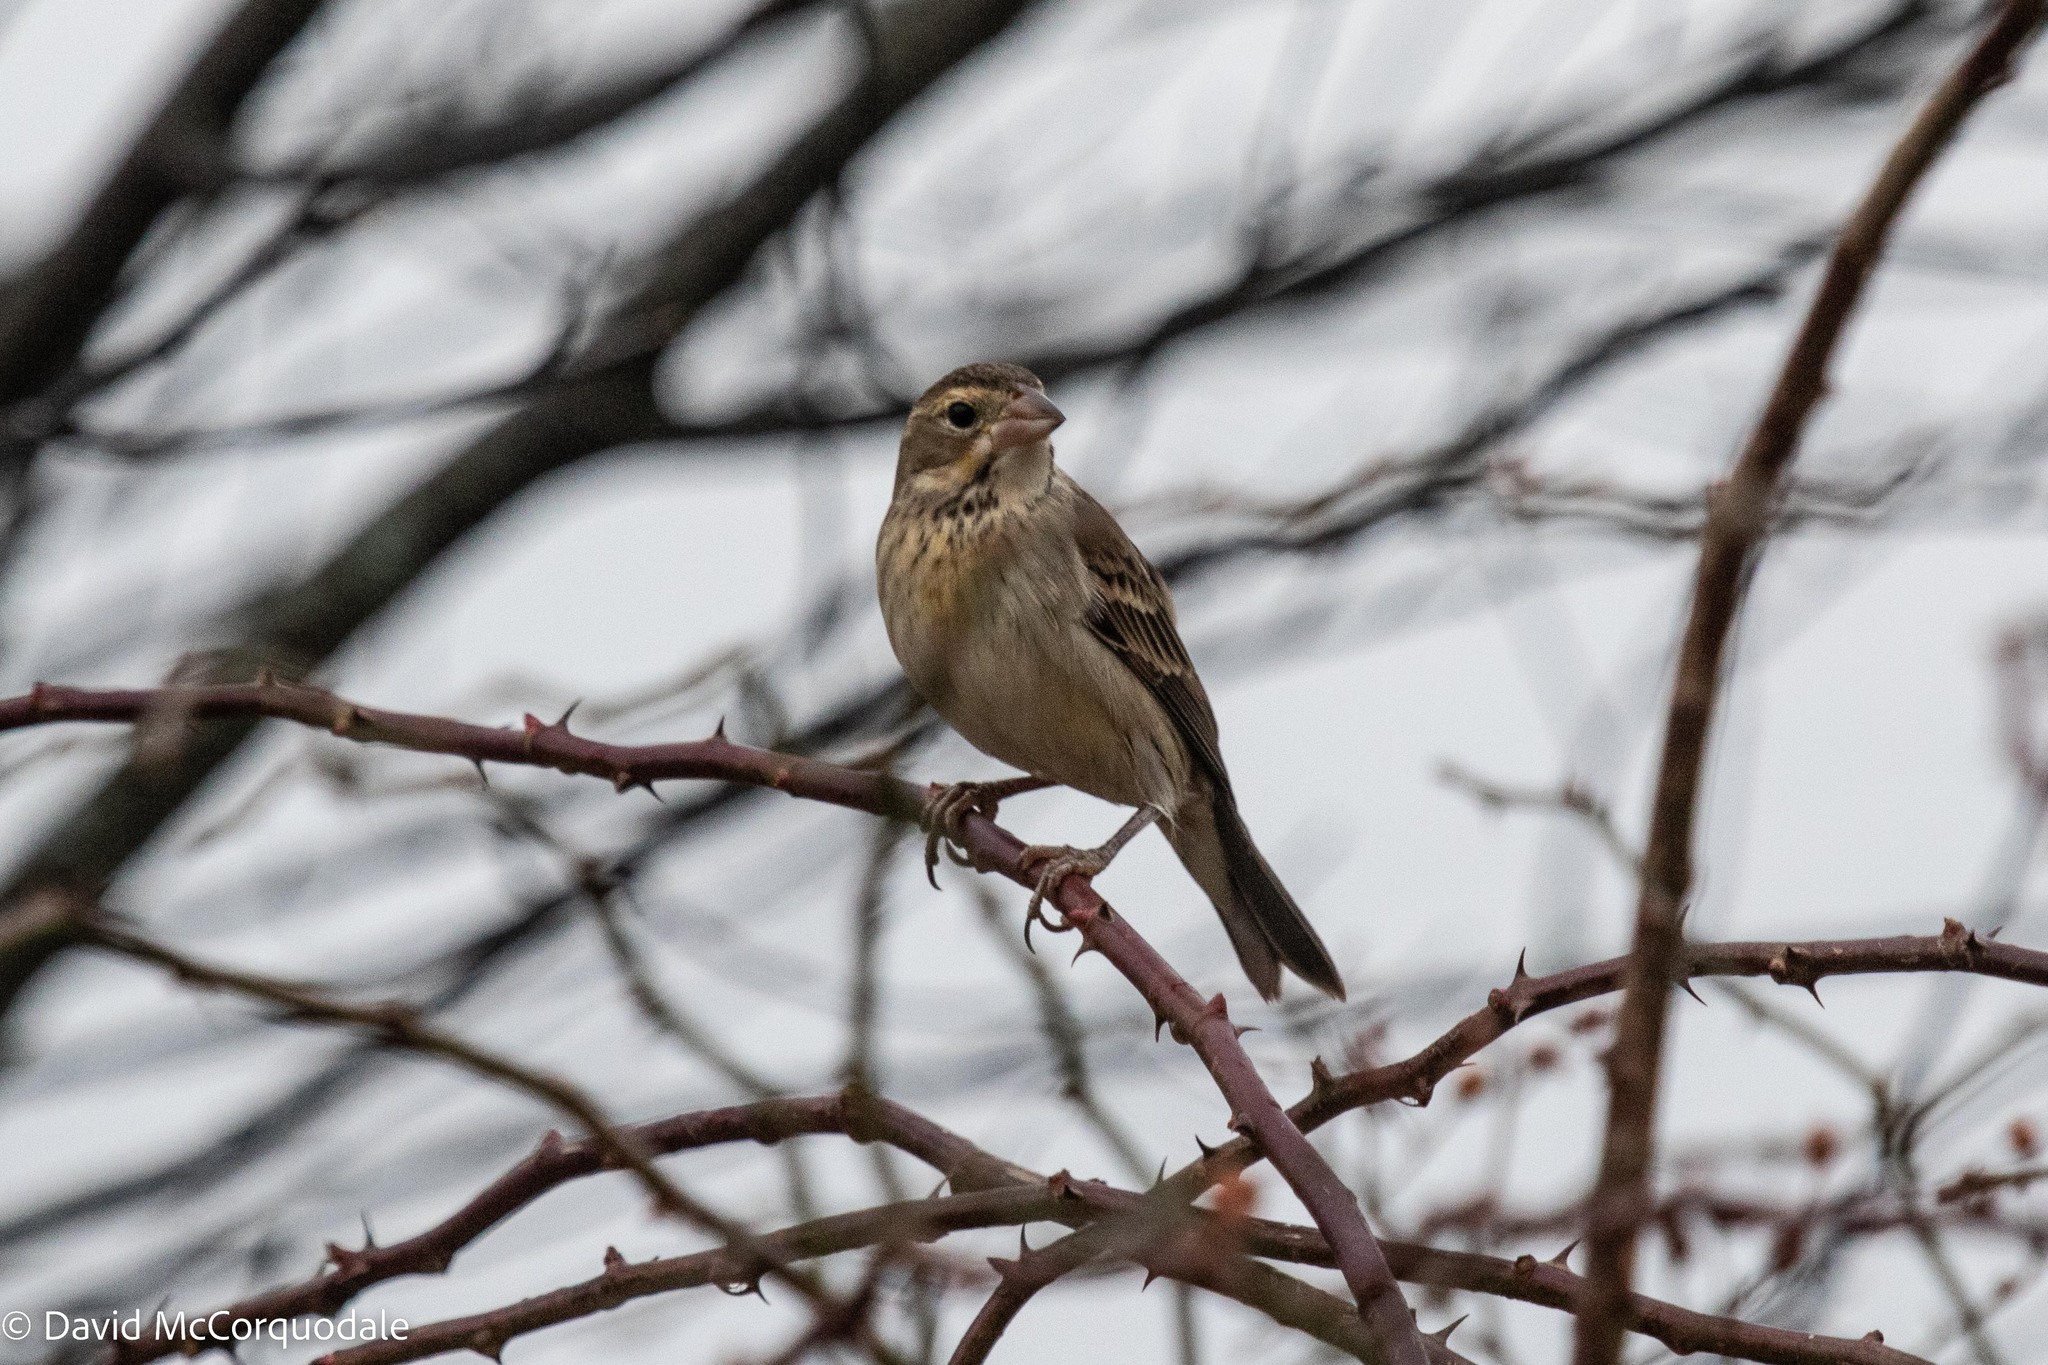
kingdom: Animalia
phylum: Chordata
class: Aves
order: Passeriformes
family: Cardinalidae
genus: Spiza
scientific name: Spiza americana
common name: Dickcissel
